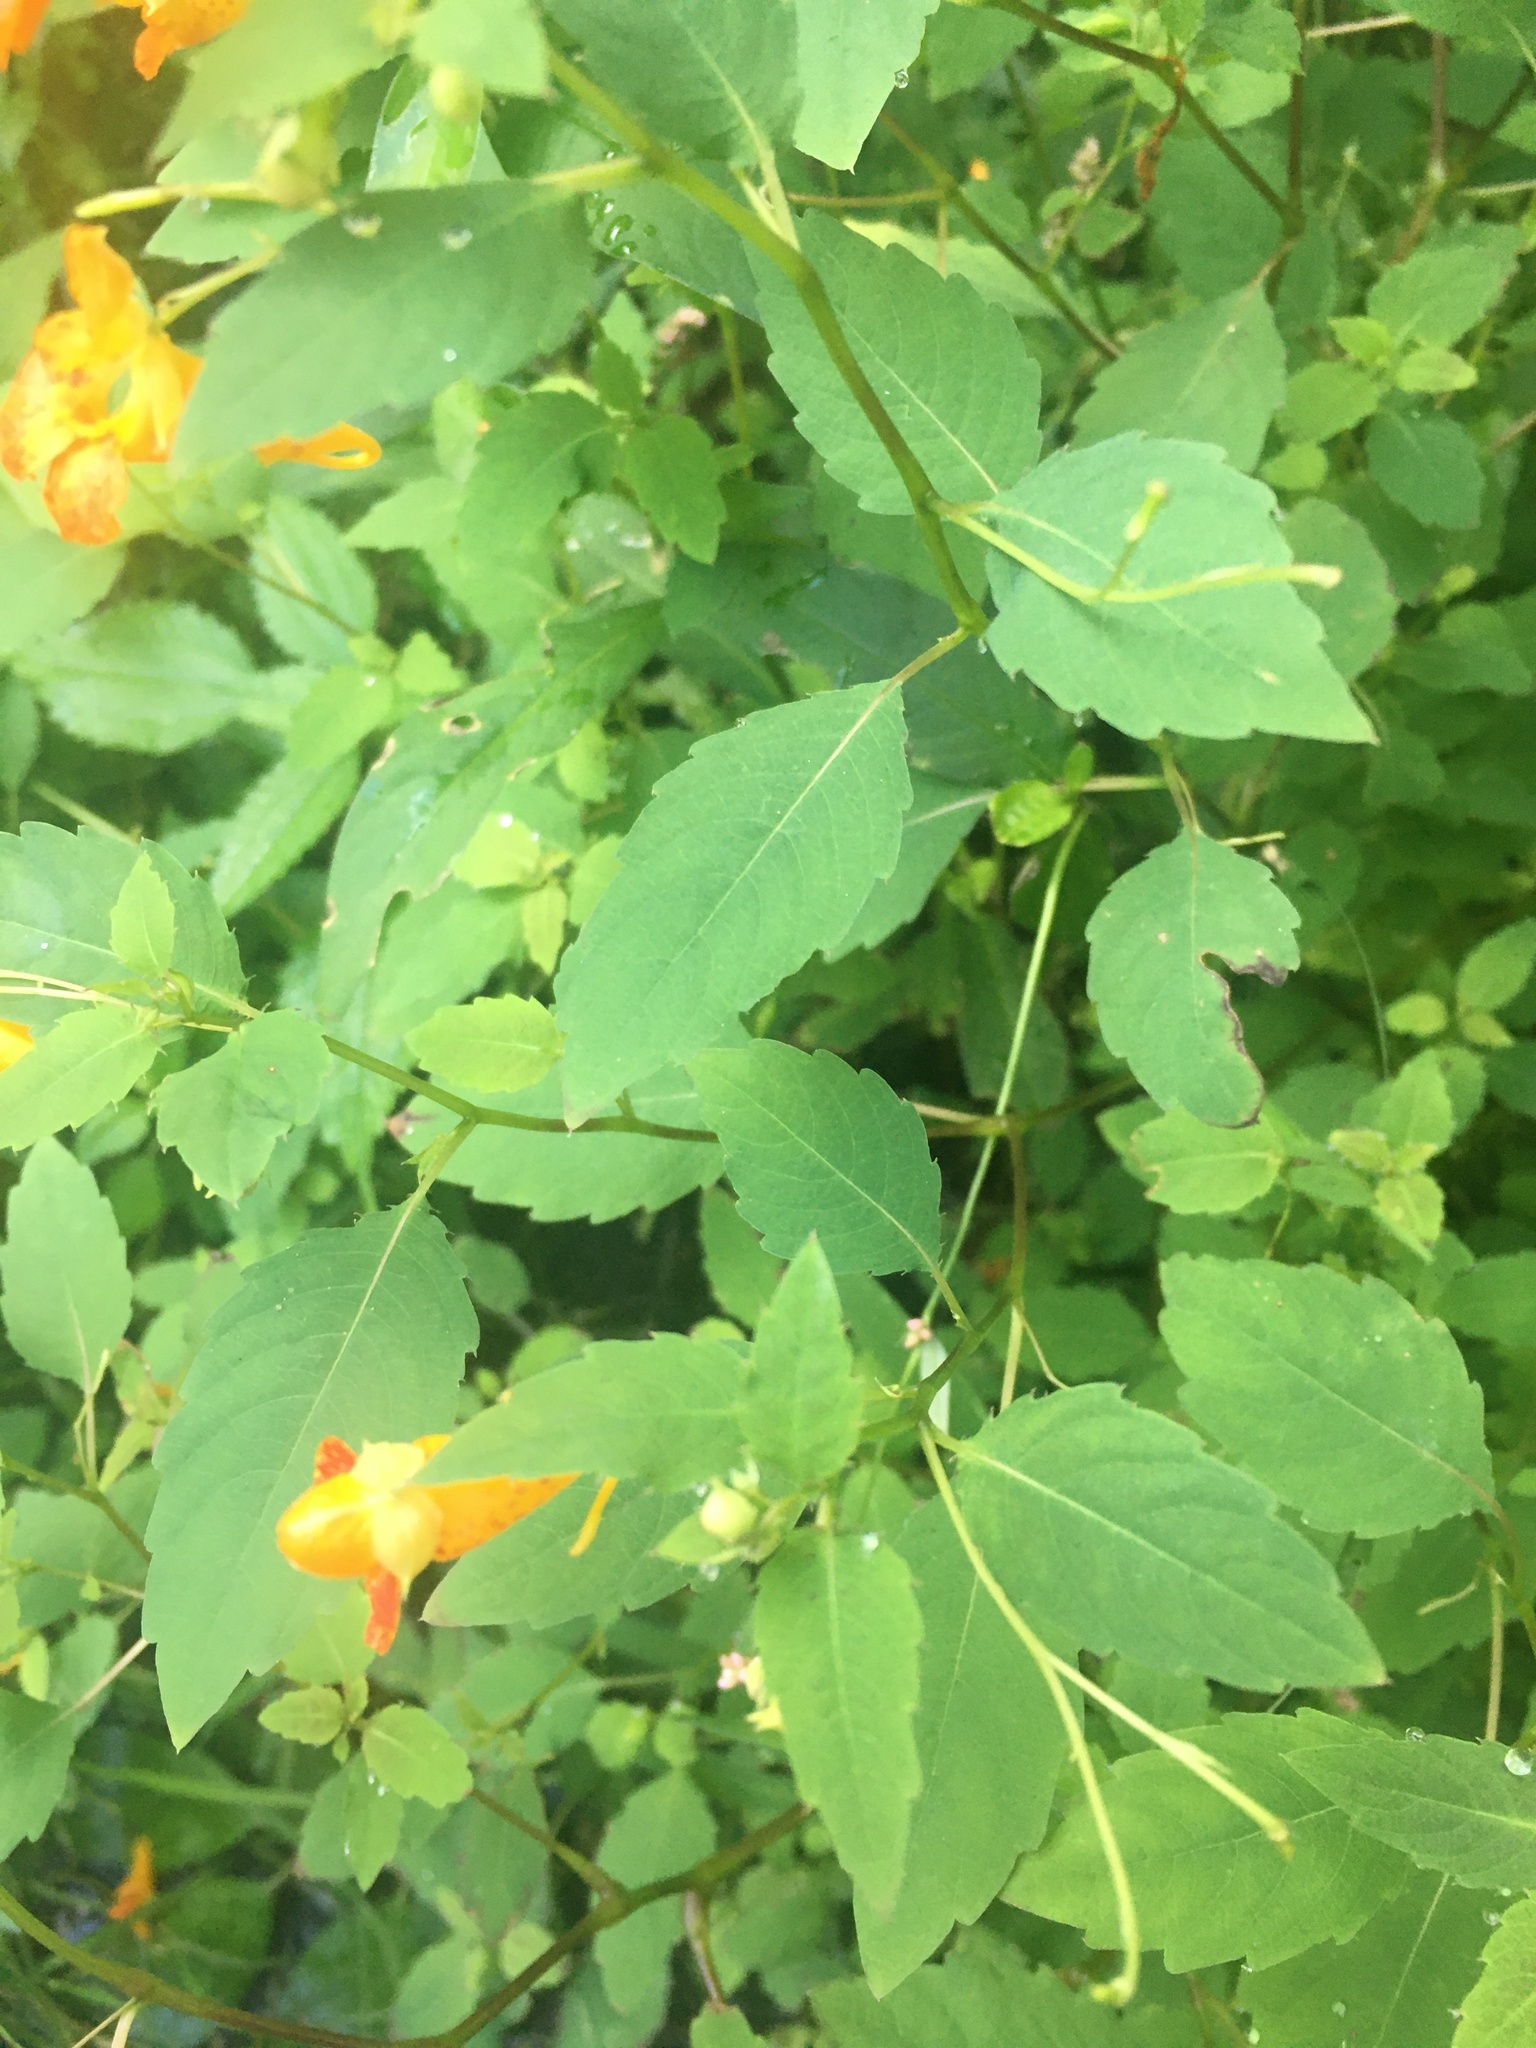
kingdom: Plantae
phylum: Tracheophyta
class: Magnoliopsida
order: Ericales
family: Balsaminaceae
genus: Impatiens
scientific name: Impatiens capensis
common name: Orange balsam
